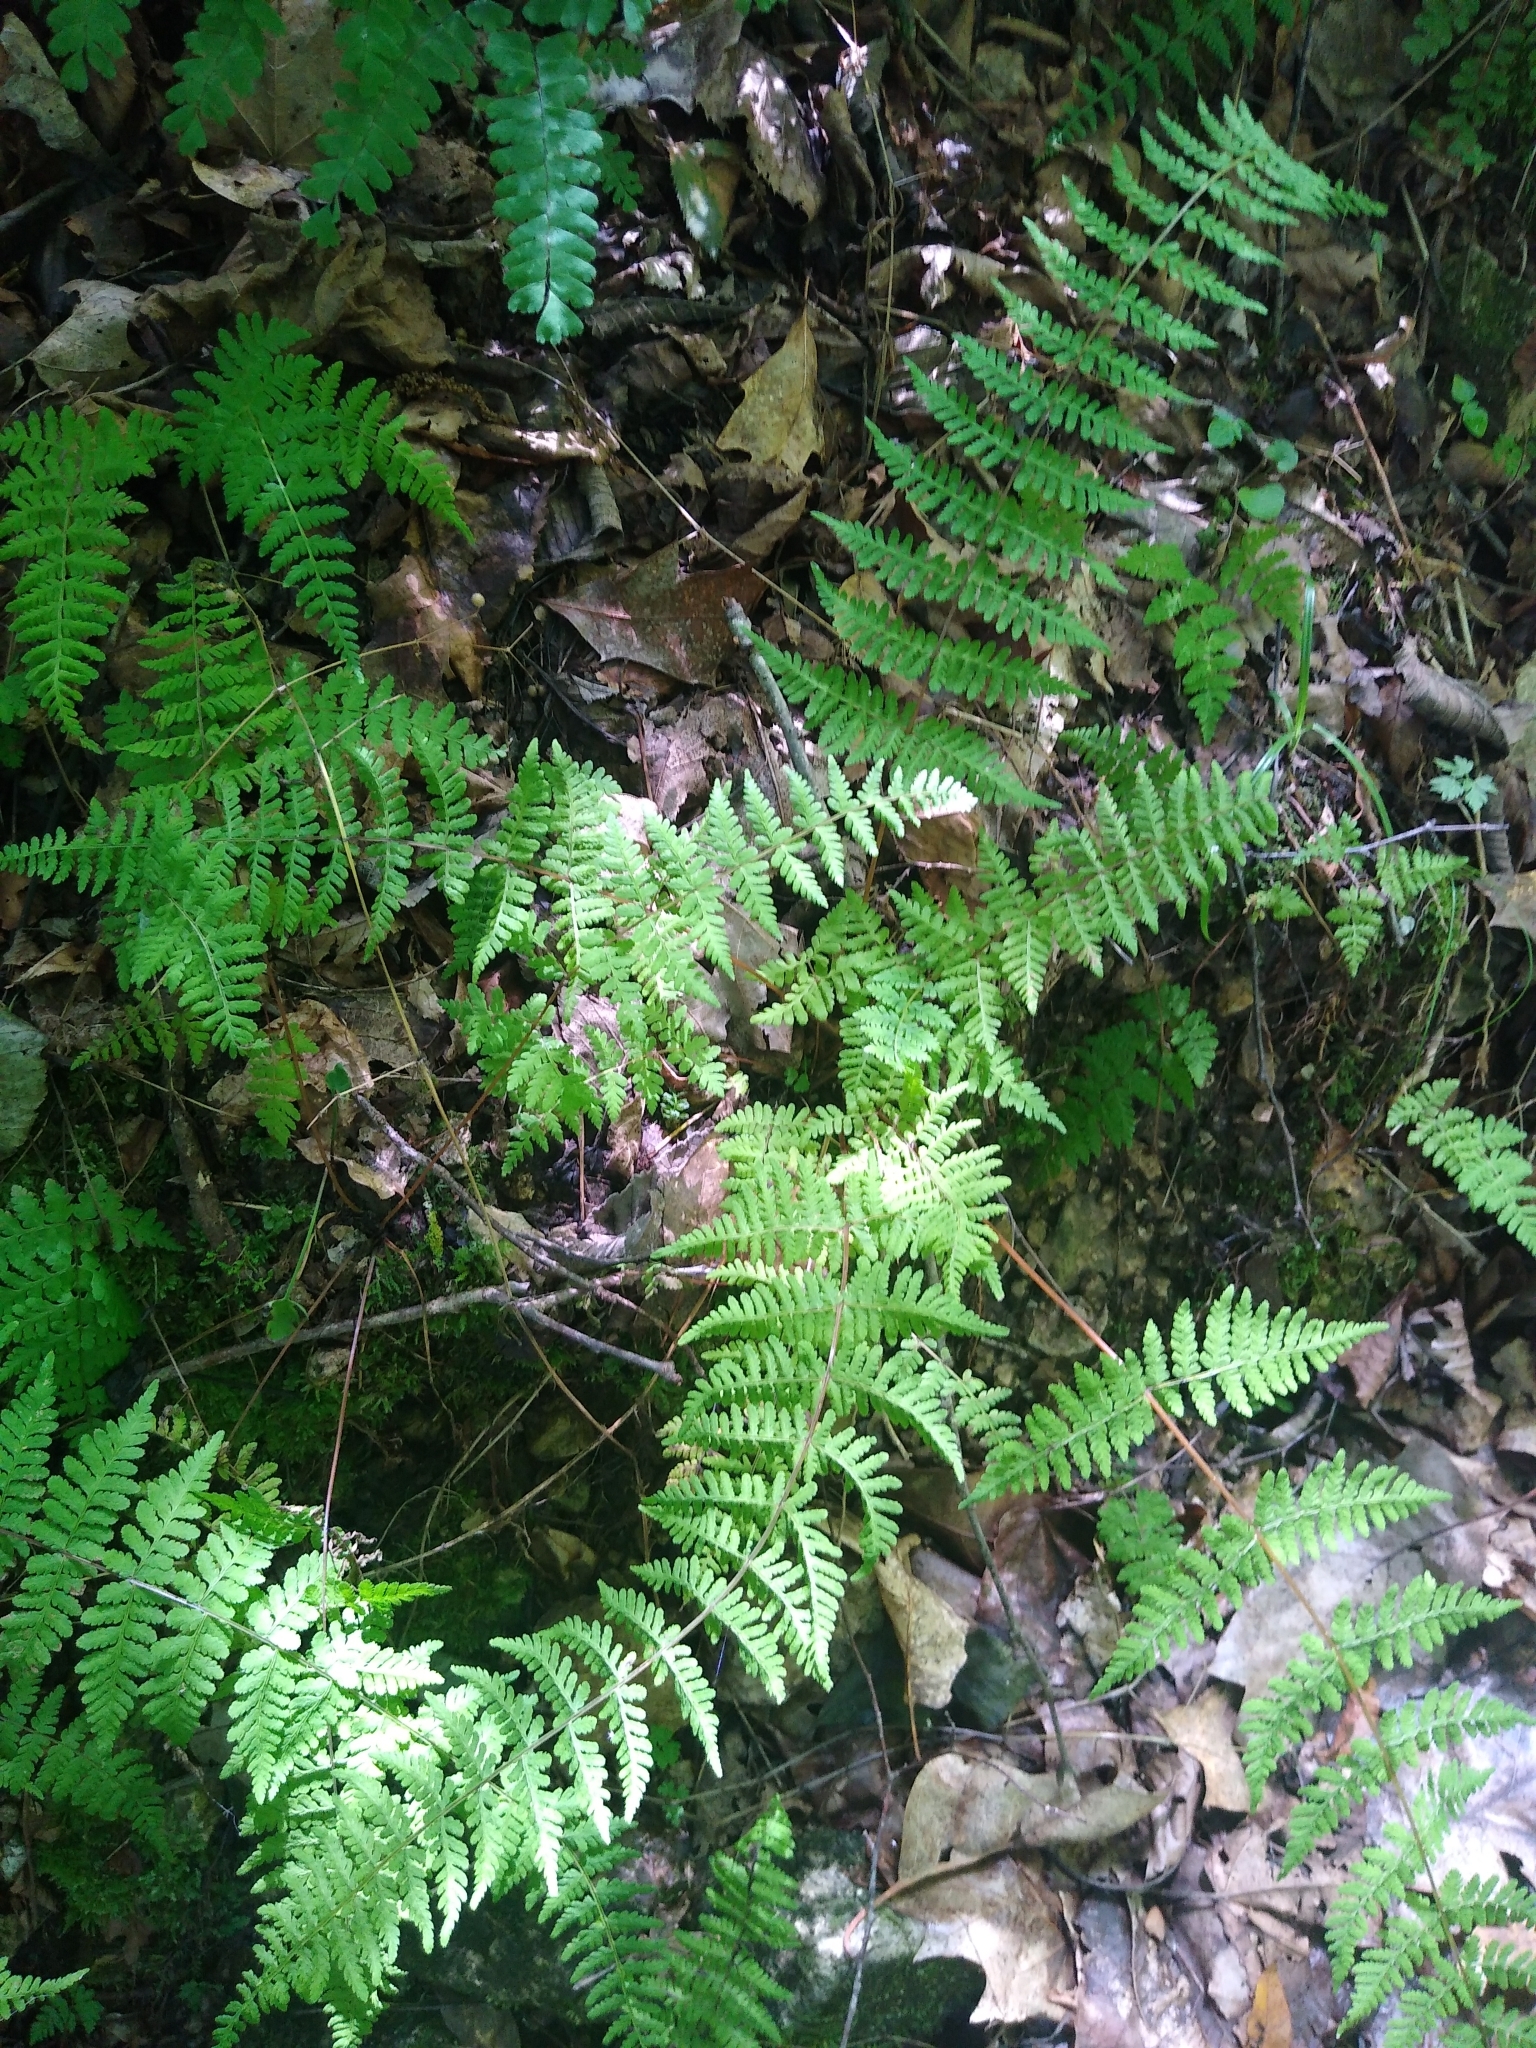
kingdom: Plantae
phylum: Tracheophyta
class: Polypodiopsida
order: Polypodiales
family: Cystopteridaceae
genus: Cystopteris
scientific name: Cystopteris bulbifera
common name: Bulblet bladder fern
